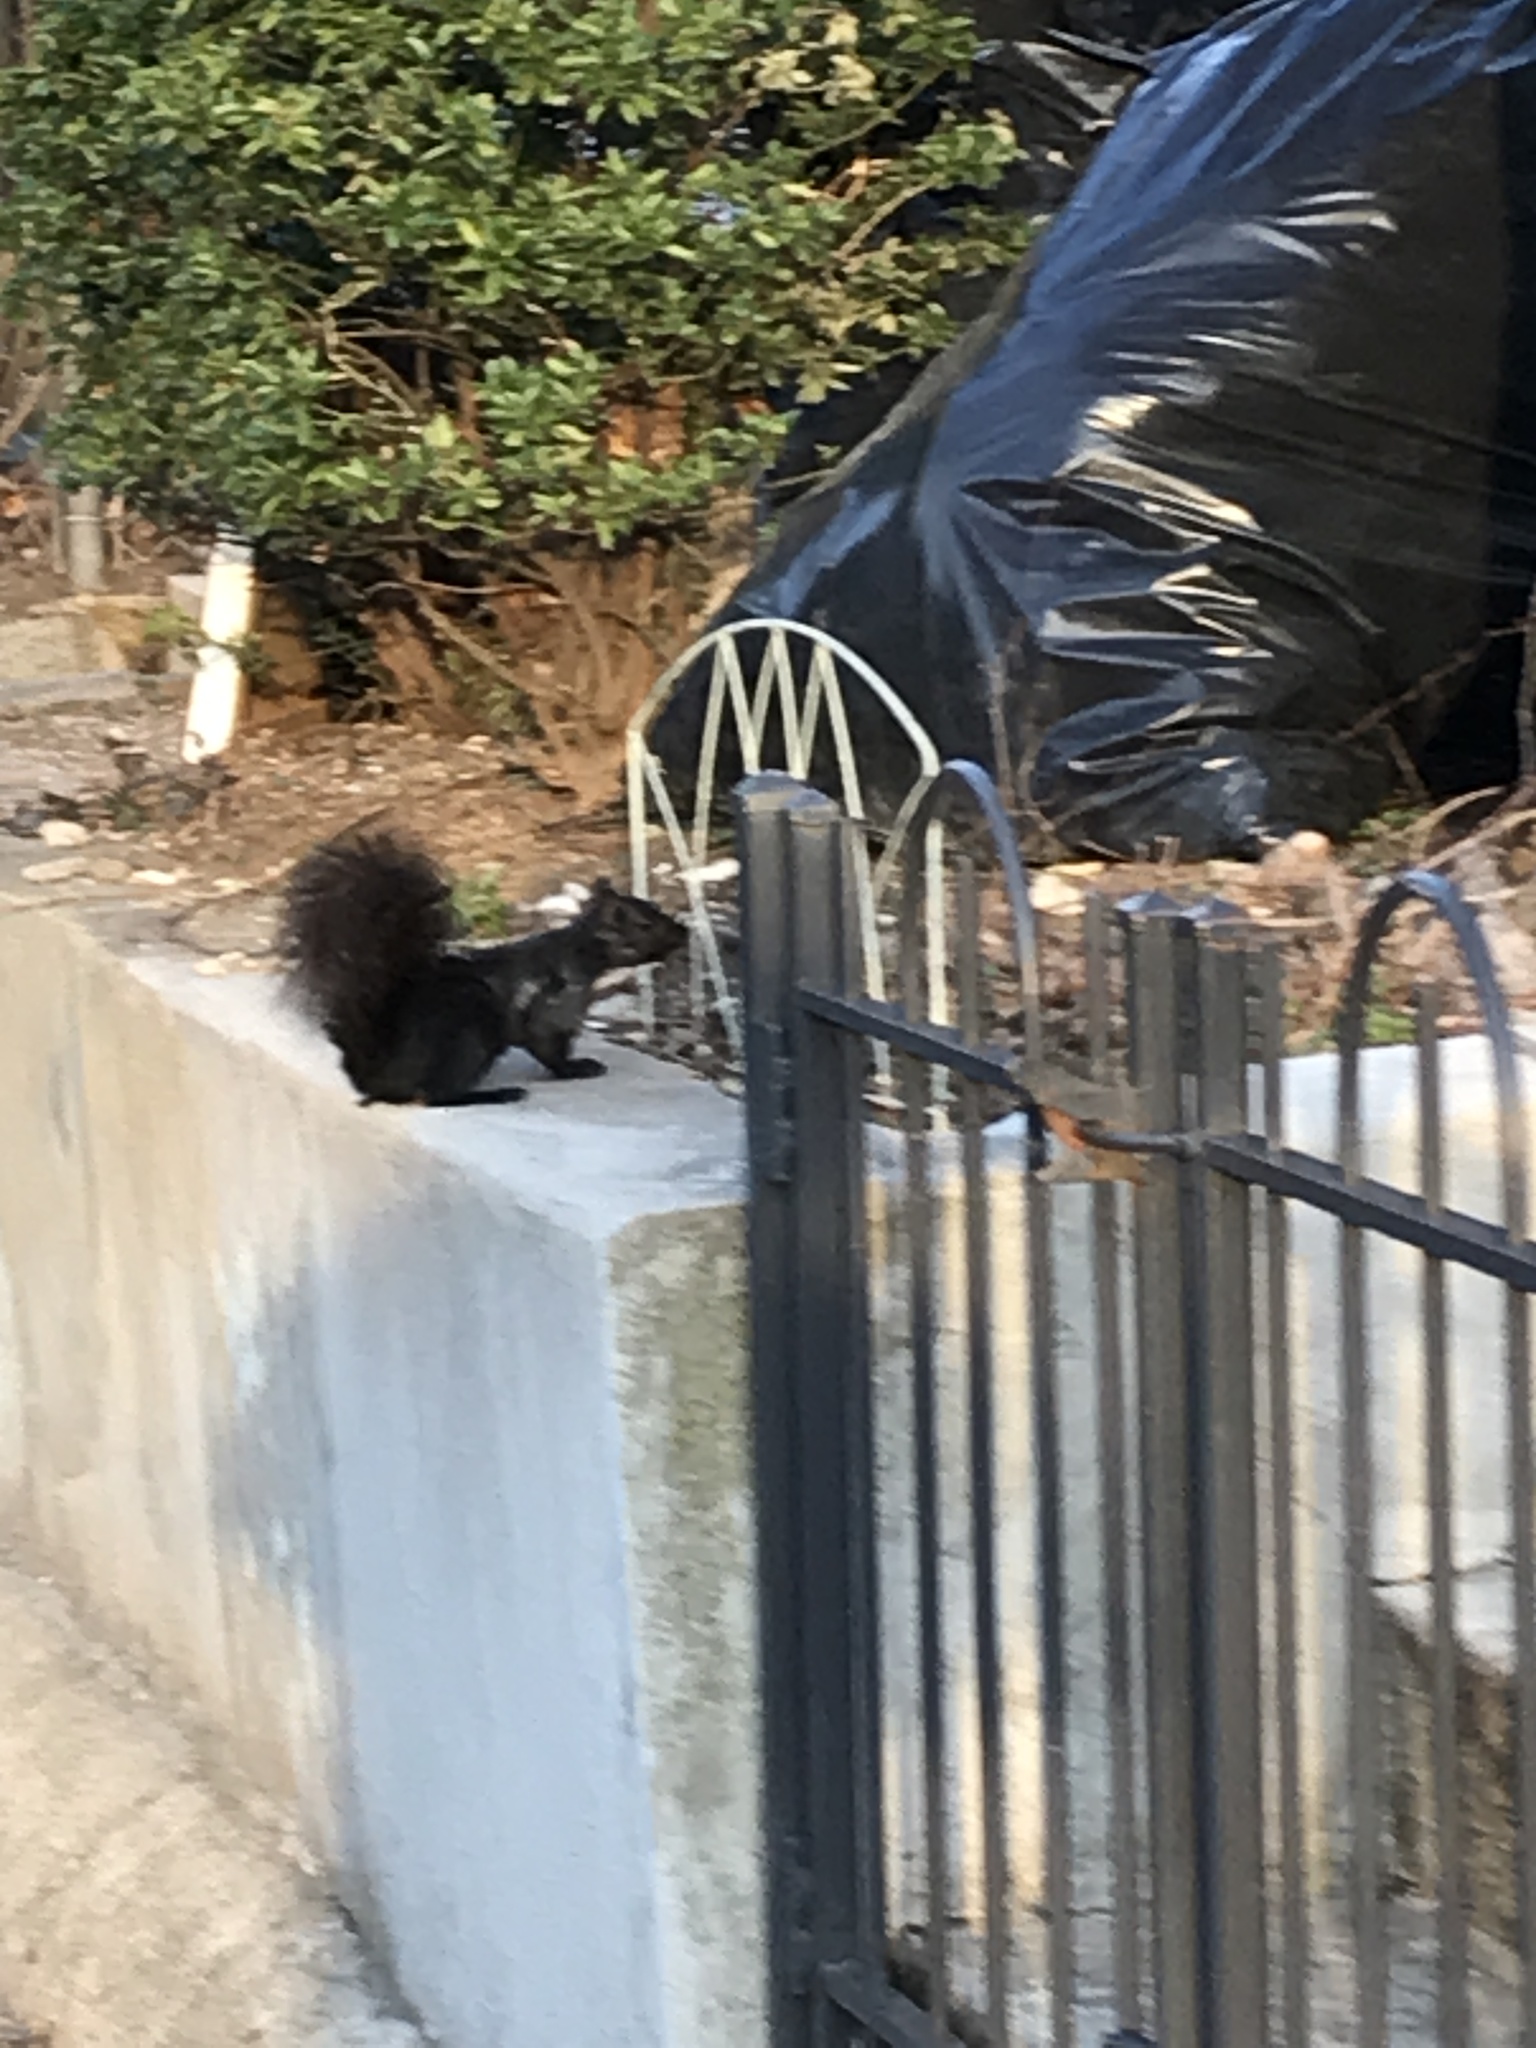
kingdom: Animalia
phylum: Chordata
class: Mammalia
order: Rodentia
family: Sciuridae
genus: Sciurus
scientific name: Sciurus carolinensis
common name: Eastern gray squirrel
